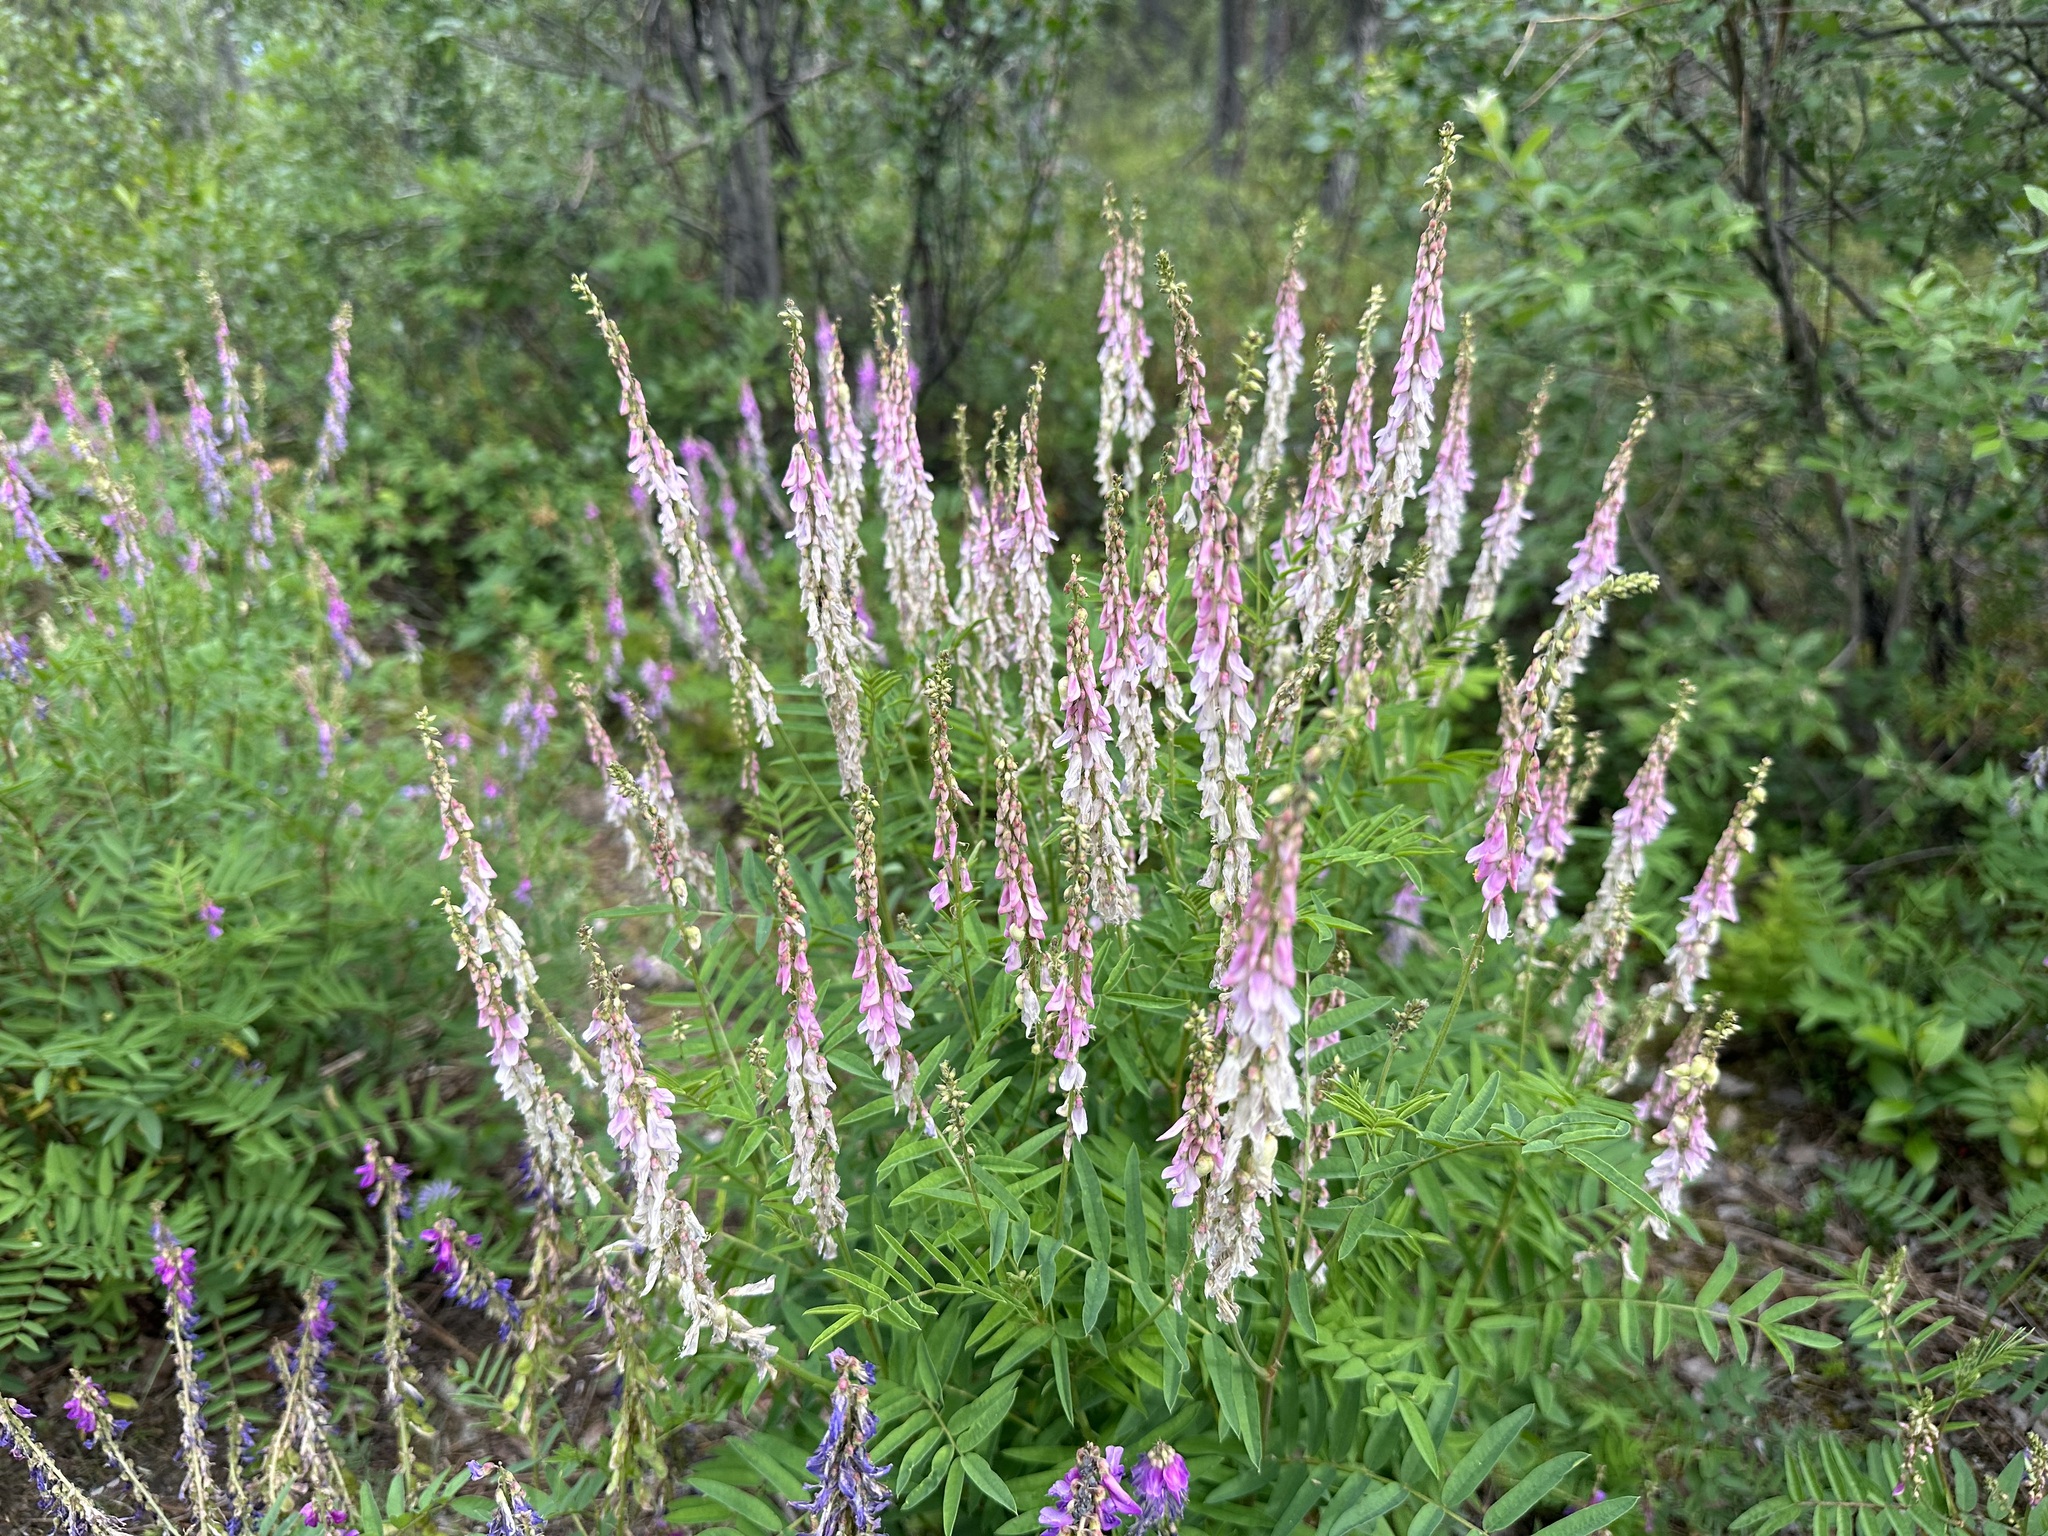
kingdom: Plantae
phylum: Tracheophyta
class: Magnoliopsida
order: Fabales
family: Fabaceae
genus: Hedysarum
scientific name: Hedysarum alpinum
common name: Alpine sweet-vetch
